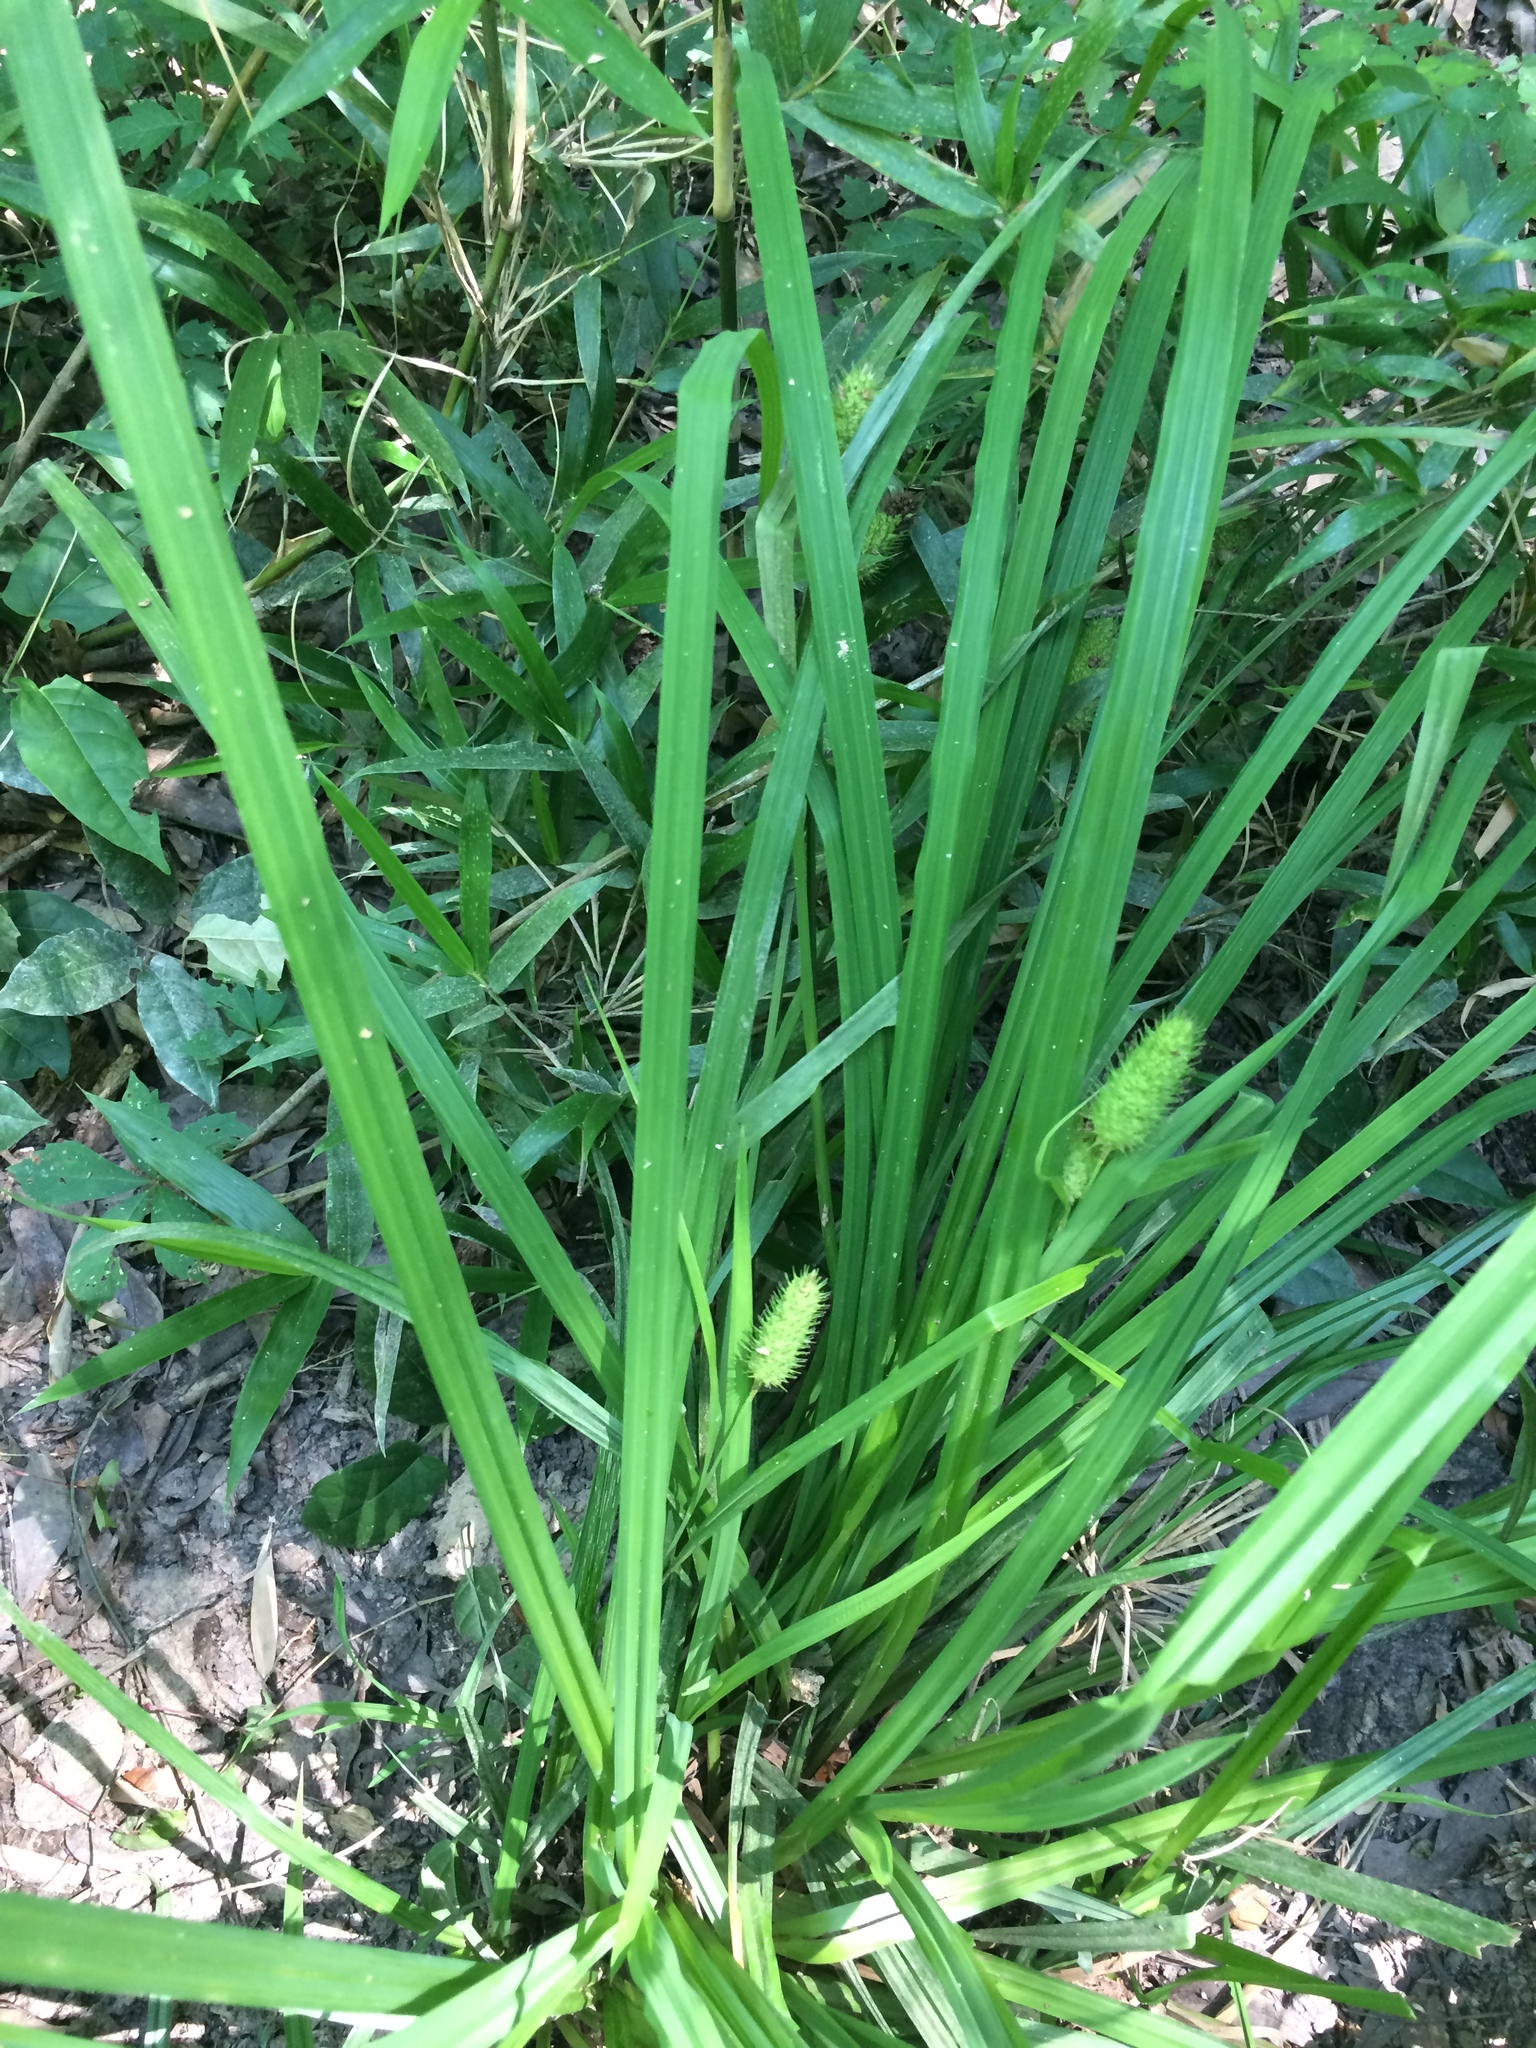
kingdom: Plantae
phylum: Tracheophyta
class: Liliopsida
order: Poales
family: Cyperaceae
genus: Carex
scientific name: Carex typhina
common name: Cattail sedge
